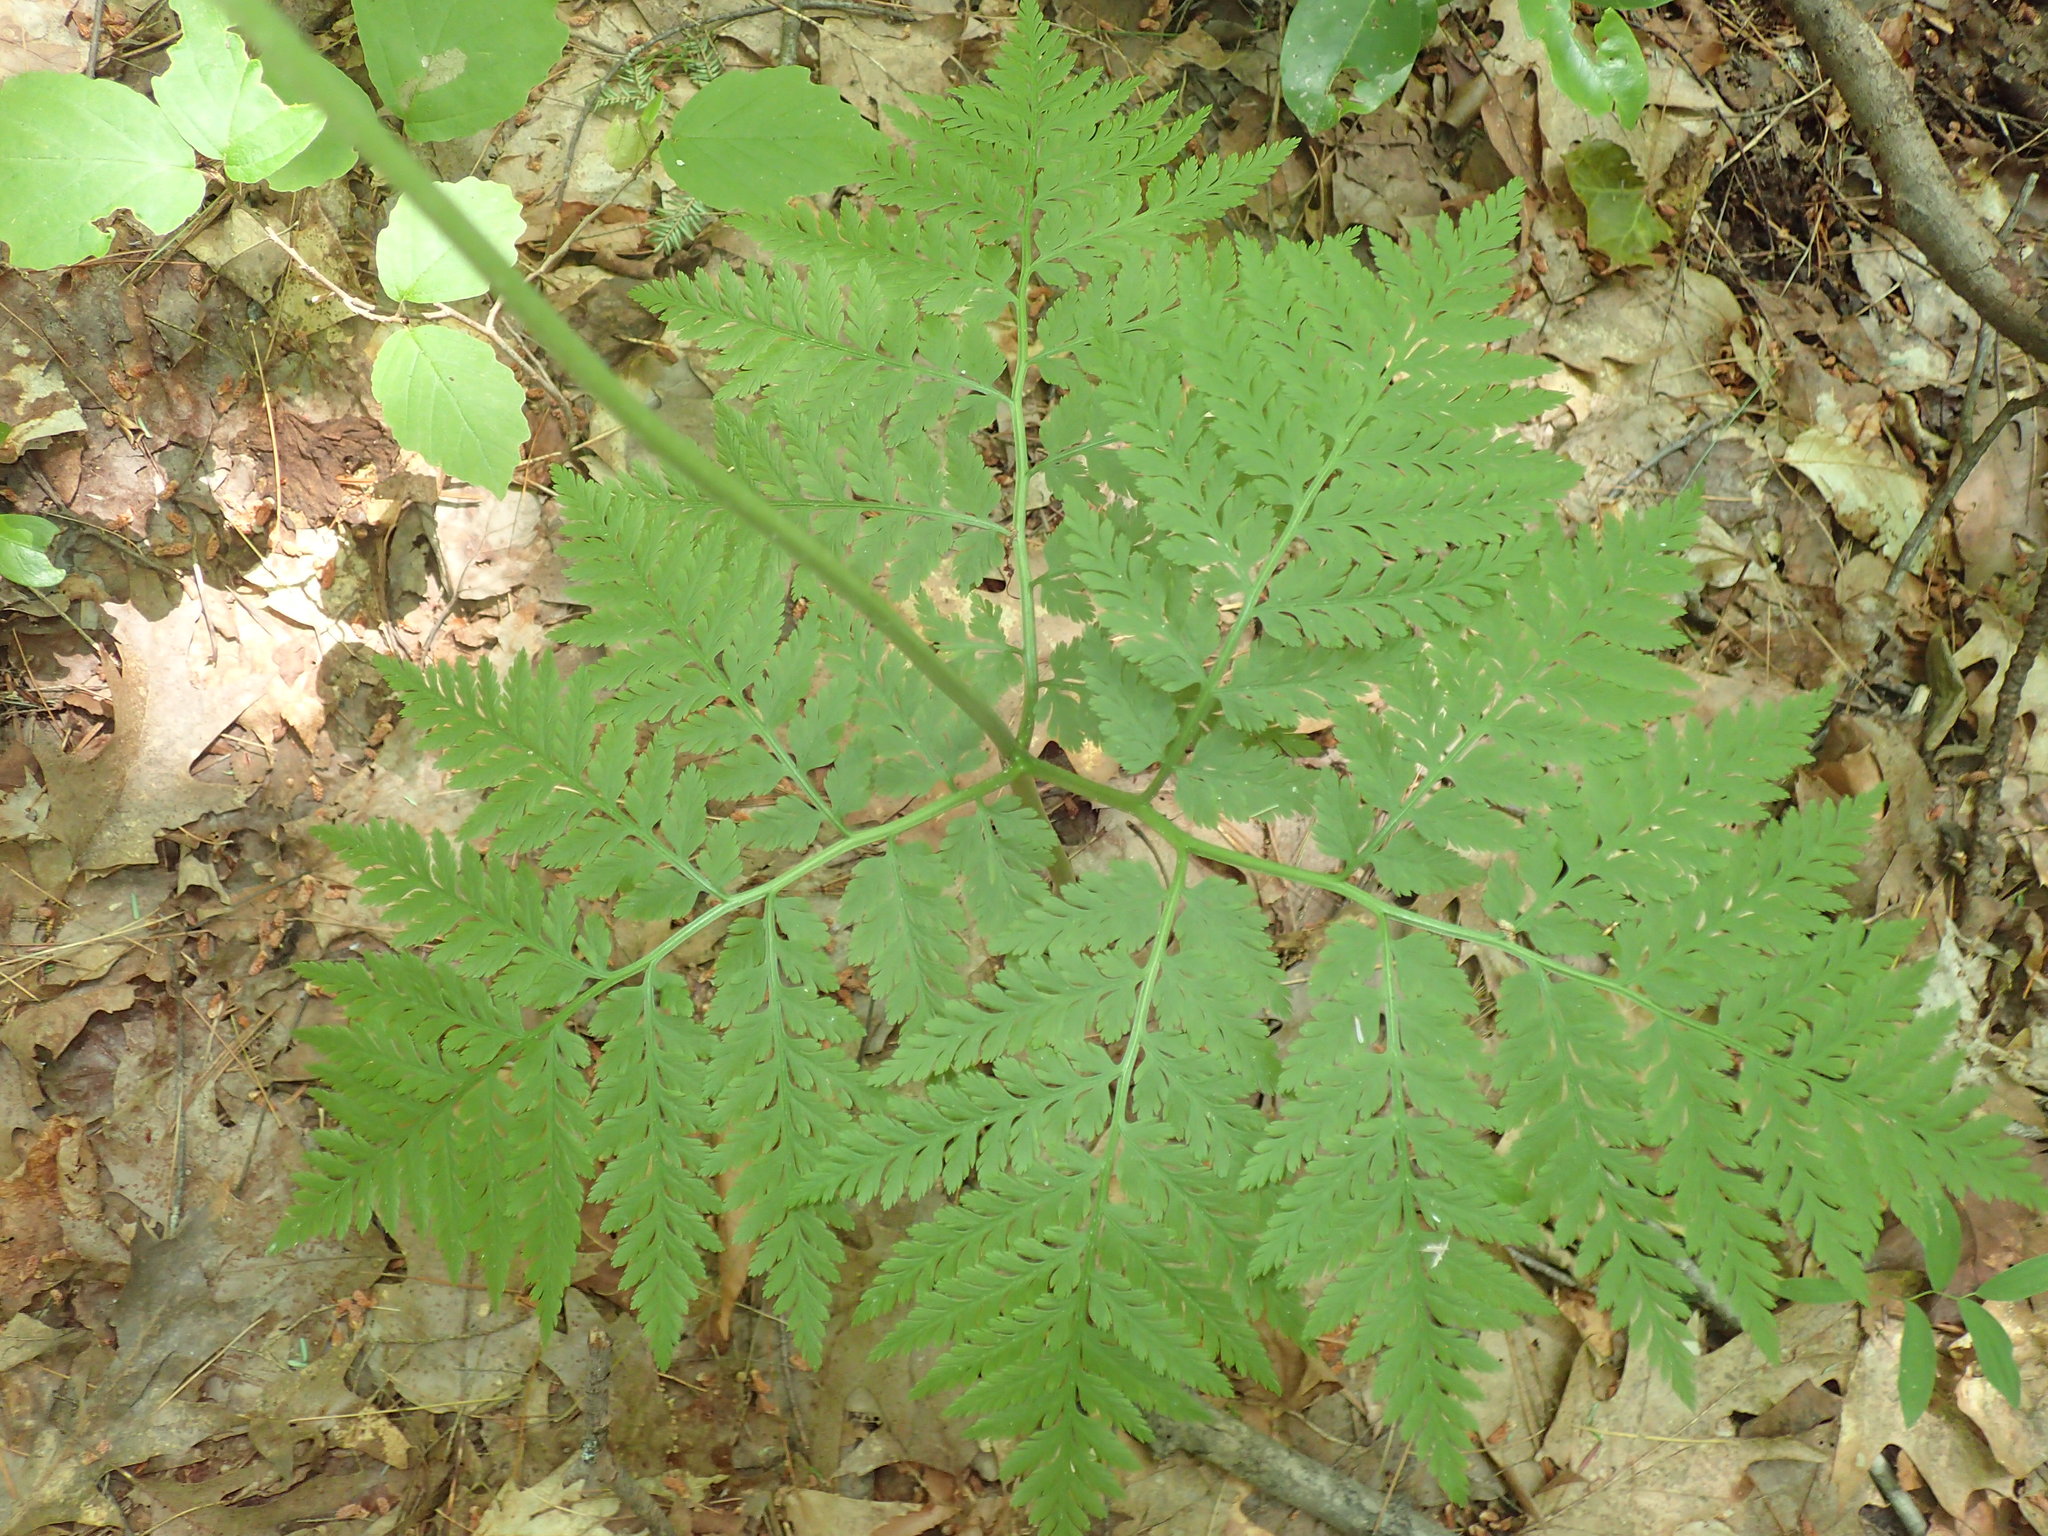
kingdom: Plantae
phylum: Tracheophyta
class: Polypodiopsida
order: Ophioglossales
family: Ophioglossaceae
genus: Botrypus
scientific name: Botrypus virginianus
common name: Common grapefern
